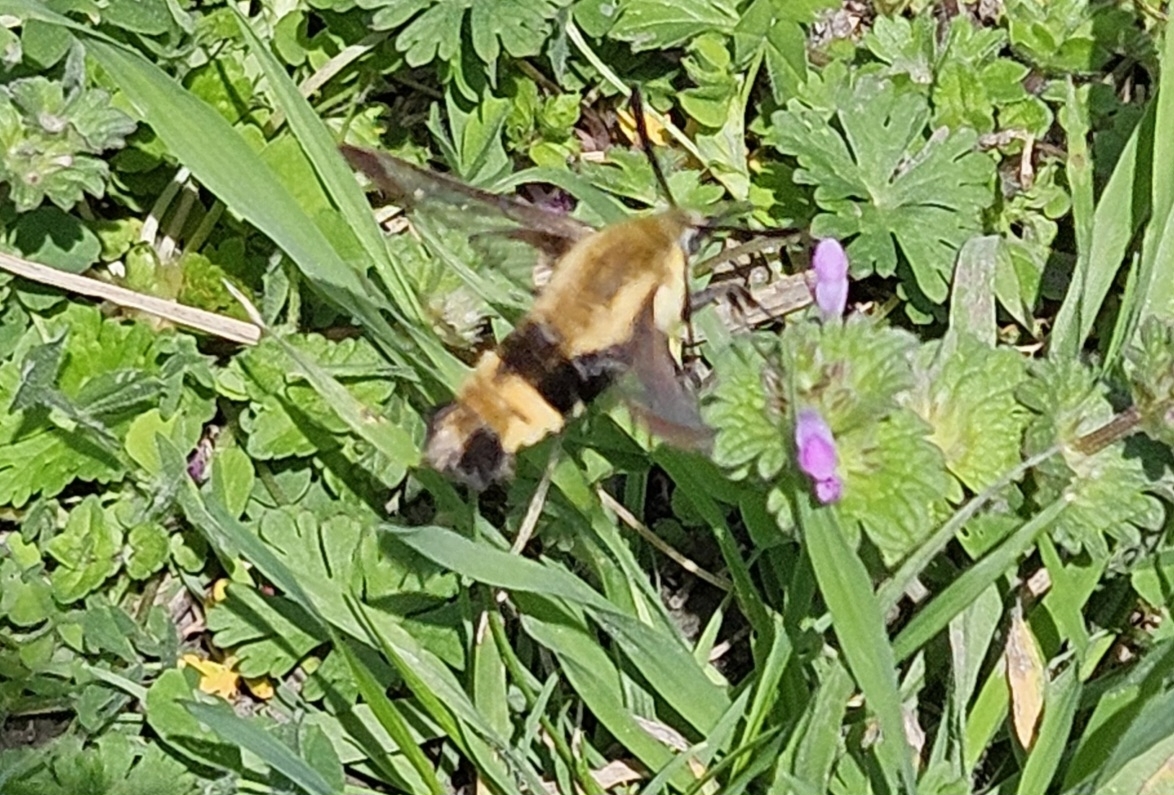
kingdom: Animalia
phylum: Arthropoda
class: Insecta
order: Lepidoptera
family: Sphingidae
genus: Hemaris
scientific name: Hemaris diffinis
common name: Bumblebee moth
